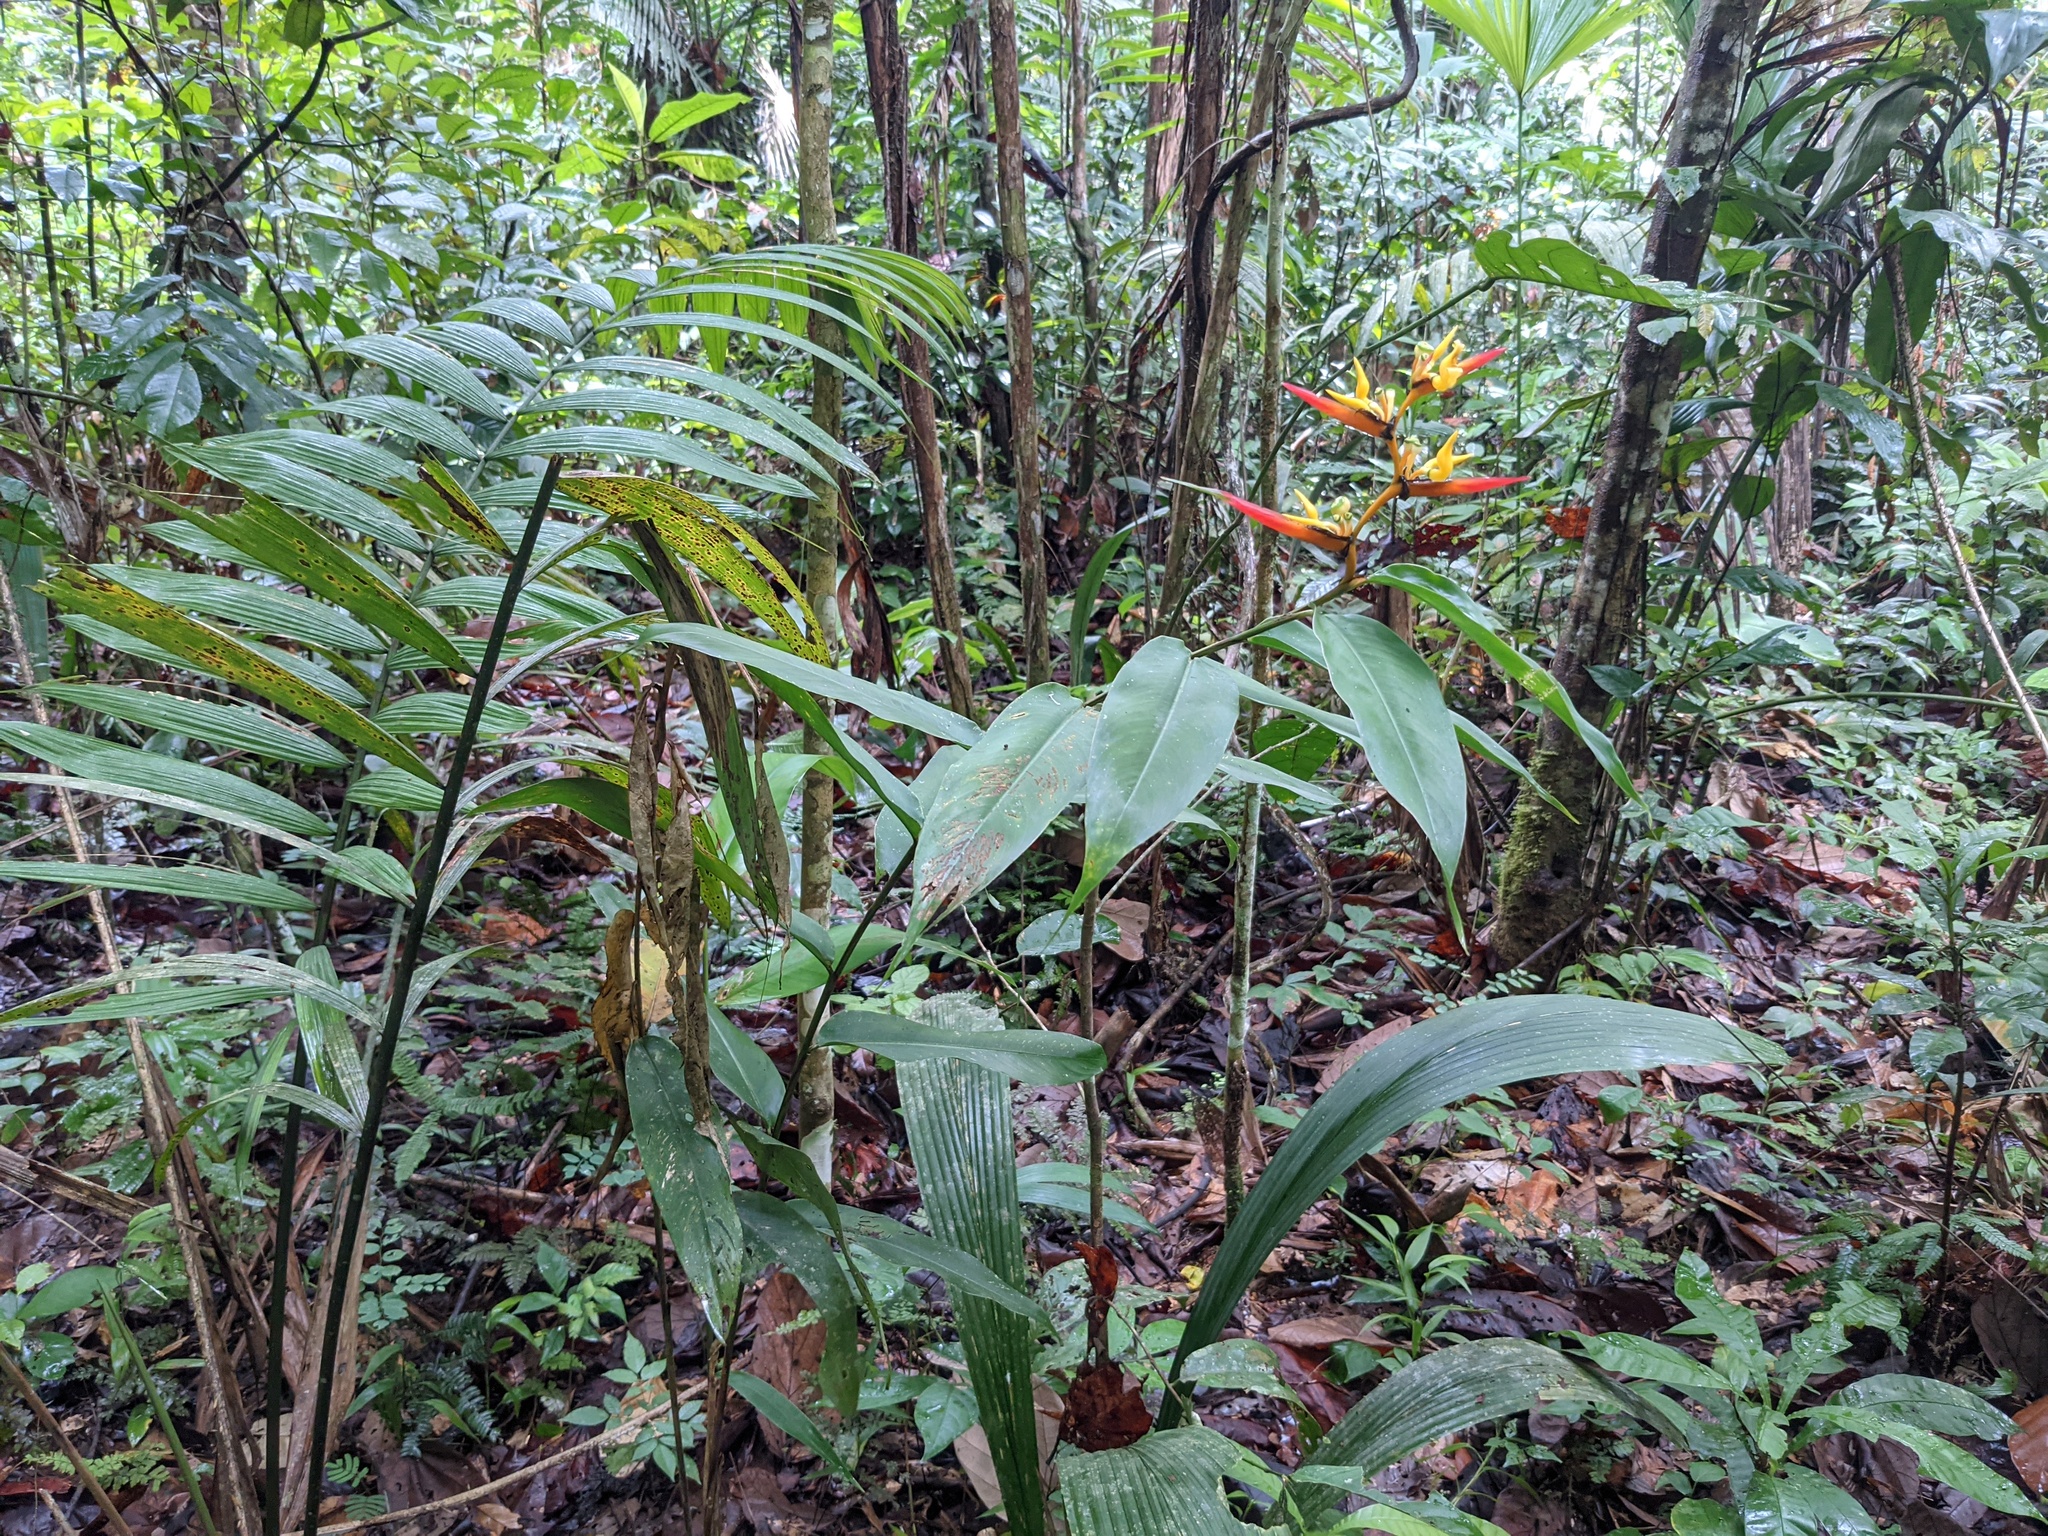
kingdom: Plantae
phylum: Tracheophyta
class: Liliopsida
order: Zingiberales
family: Heliconiaceae
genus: Heliconia
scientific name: Heliconia schumanniana
